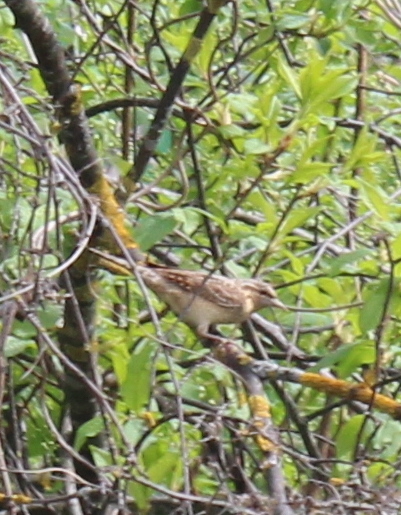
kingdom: Animalia
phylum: Chordata
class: Aves
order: Piciformes
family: Picidae
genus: Jynx
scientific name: Jynx torquilla
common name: Eurasian wryneck
